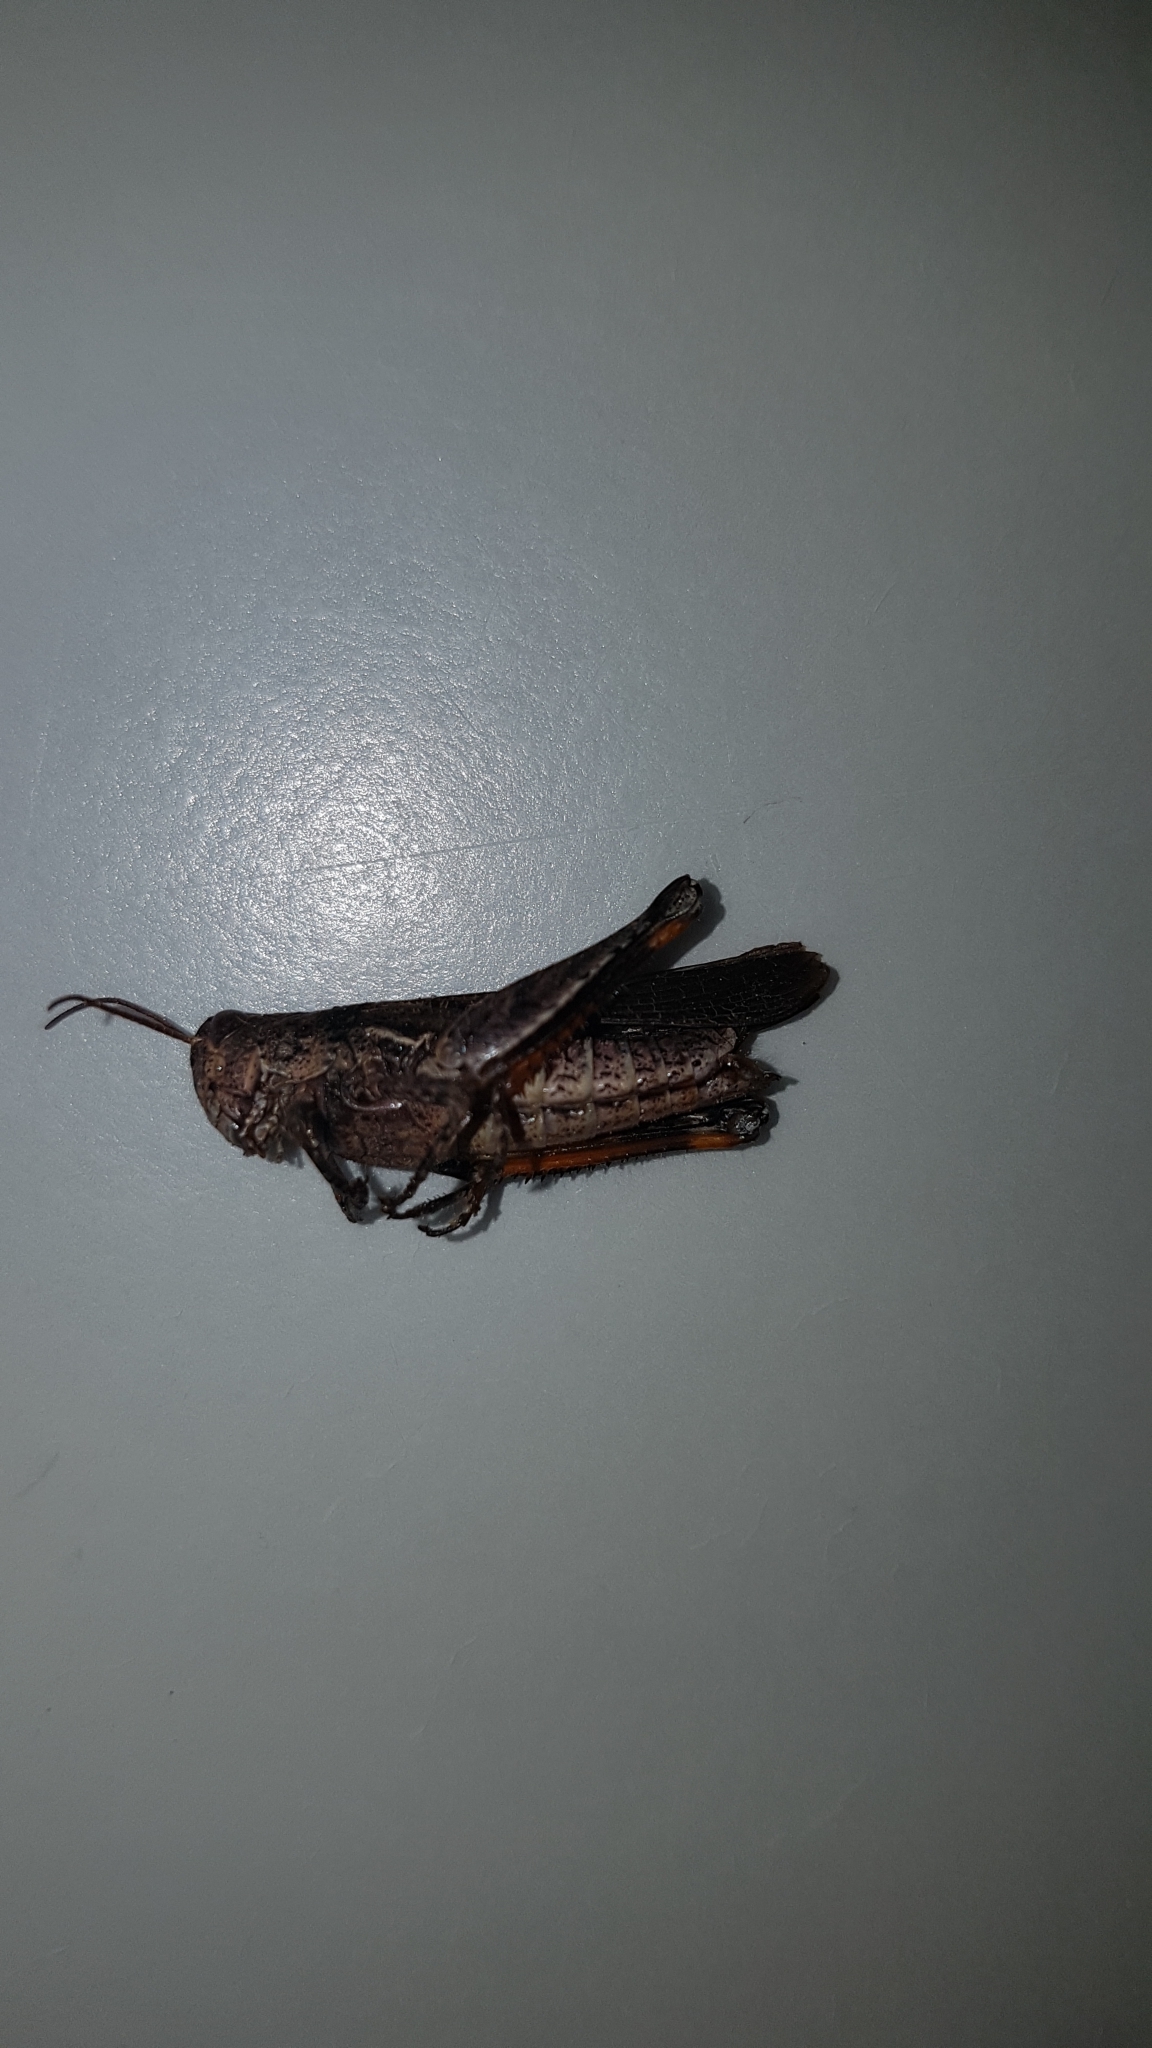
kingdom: Animalia
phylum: Arthropoda
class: Insecta
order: Orthoptera
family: Acrididae
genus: Phaulacridium
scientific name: Phaulacridium marginale
